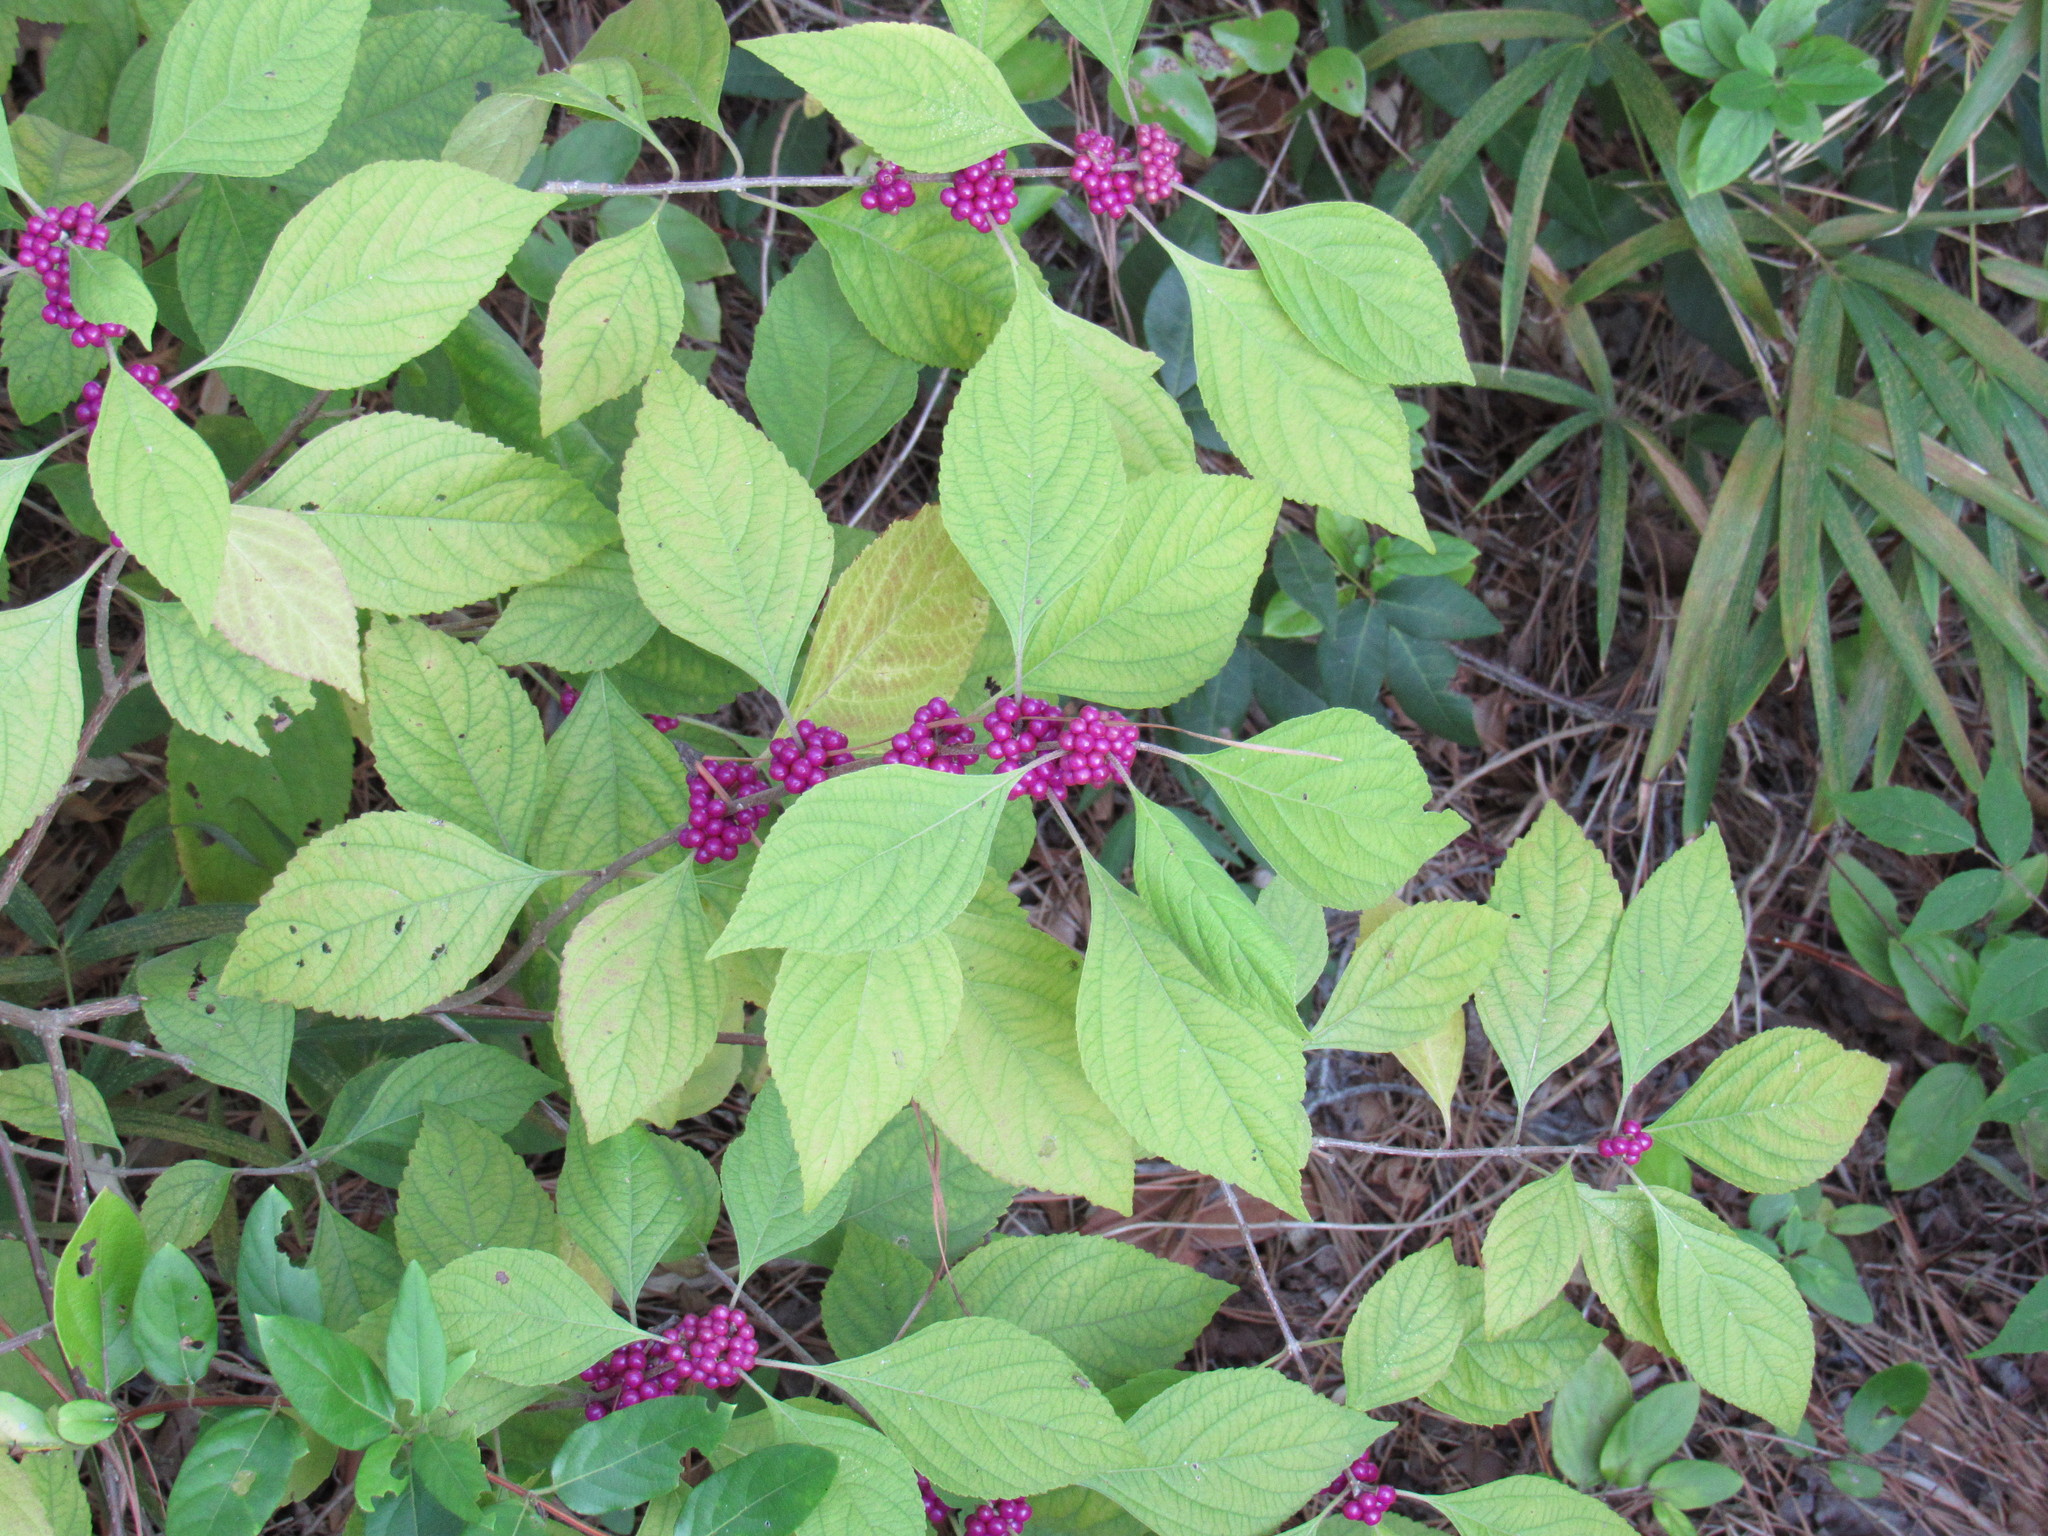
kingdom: Plantae
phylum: Tracheophyta
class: Magnoliopsida
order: Lamiales
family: Lamiaceae
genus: Callicarpa
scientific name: Callicarpa americana
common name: American beautyberry
